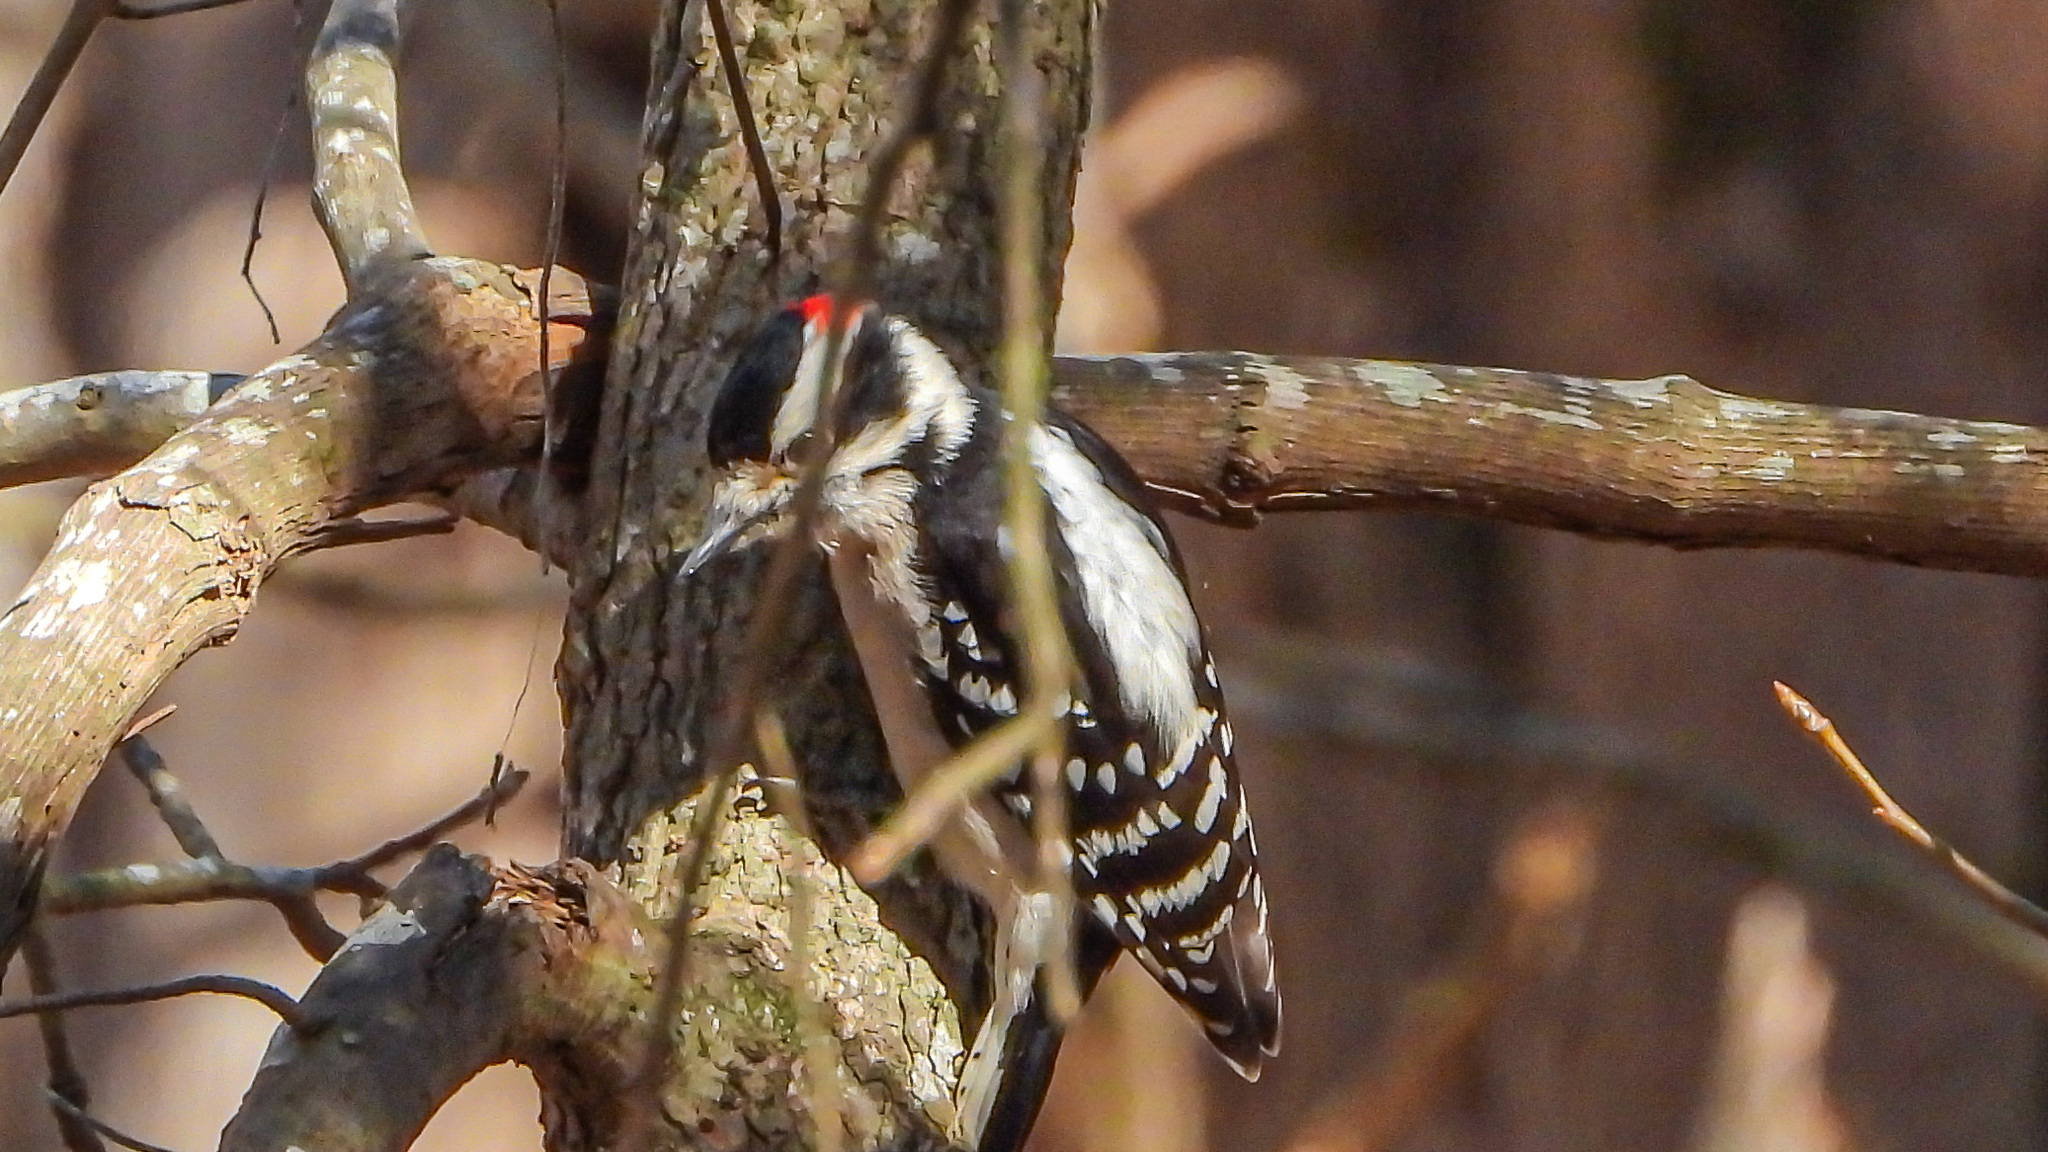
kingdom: Animalia
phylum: Chordata
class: Aves
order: Piciformes
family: Picidae
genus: Dryobates
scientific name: Dryobates pubescens
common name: Downy woodpecker
